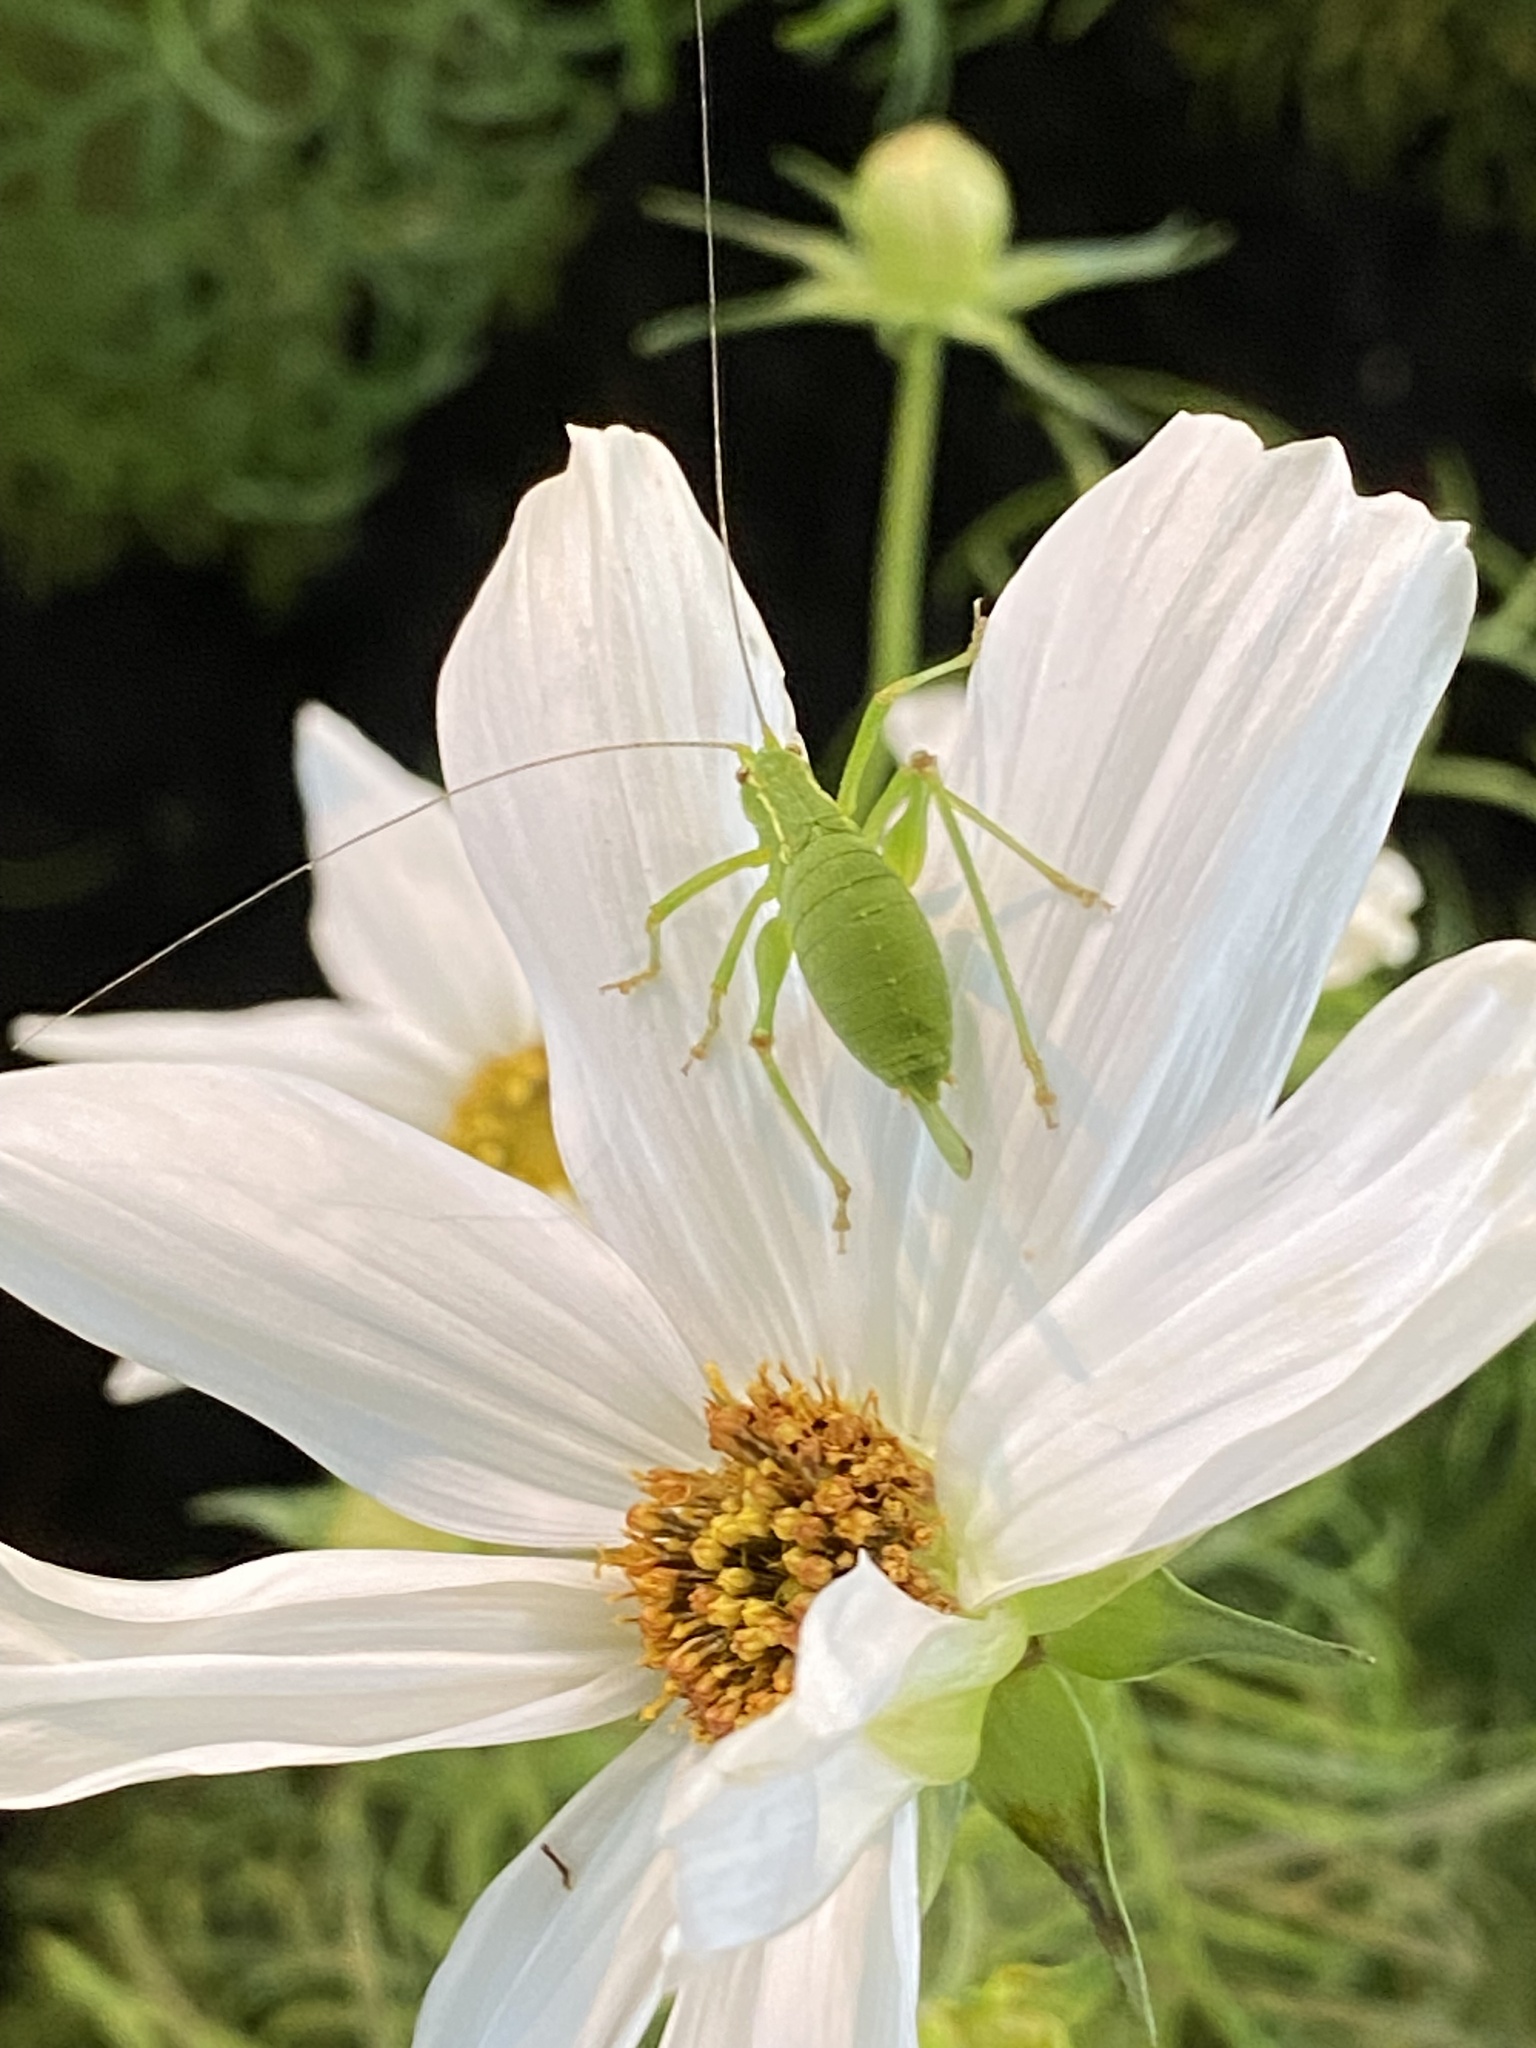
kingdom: Animalia
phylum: Arthropoda
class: Insecta
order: Orthoptera
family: Tettigoniidae
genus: Leptophyes
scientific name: Leptophyes punctatissima
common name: Speckled bush-cricket
